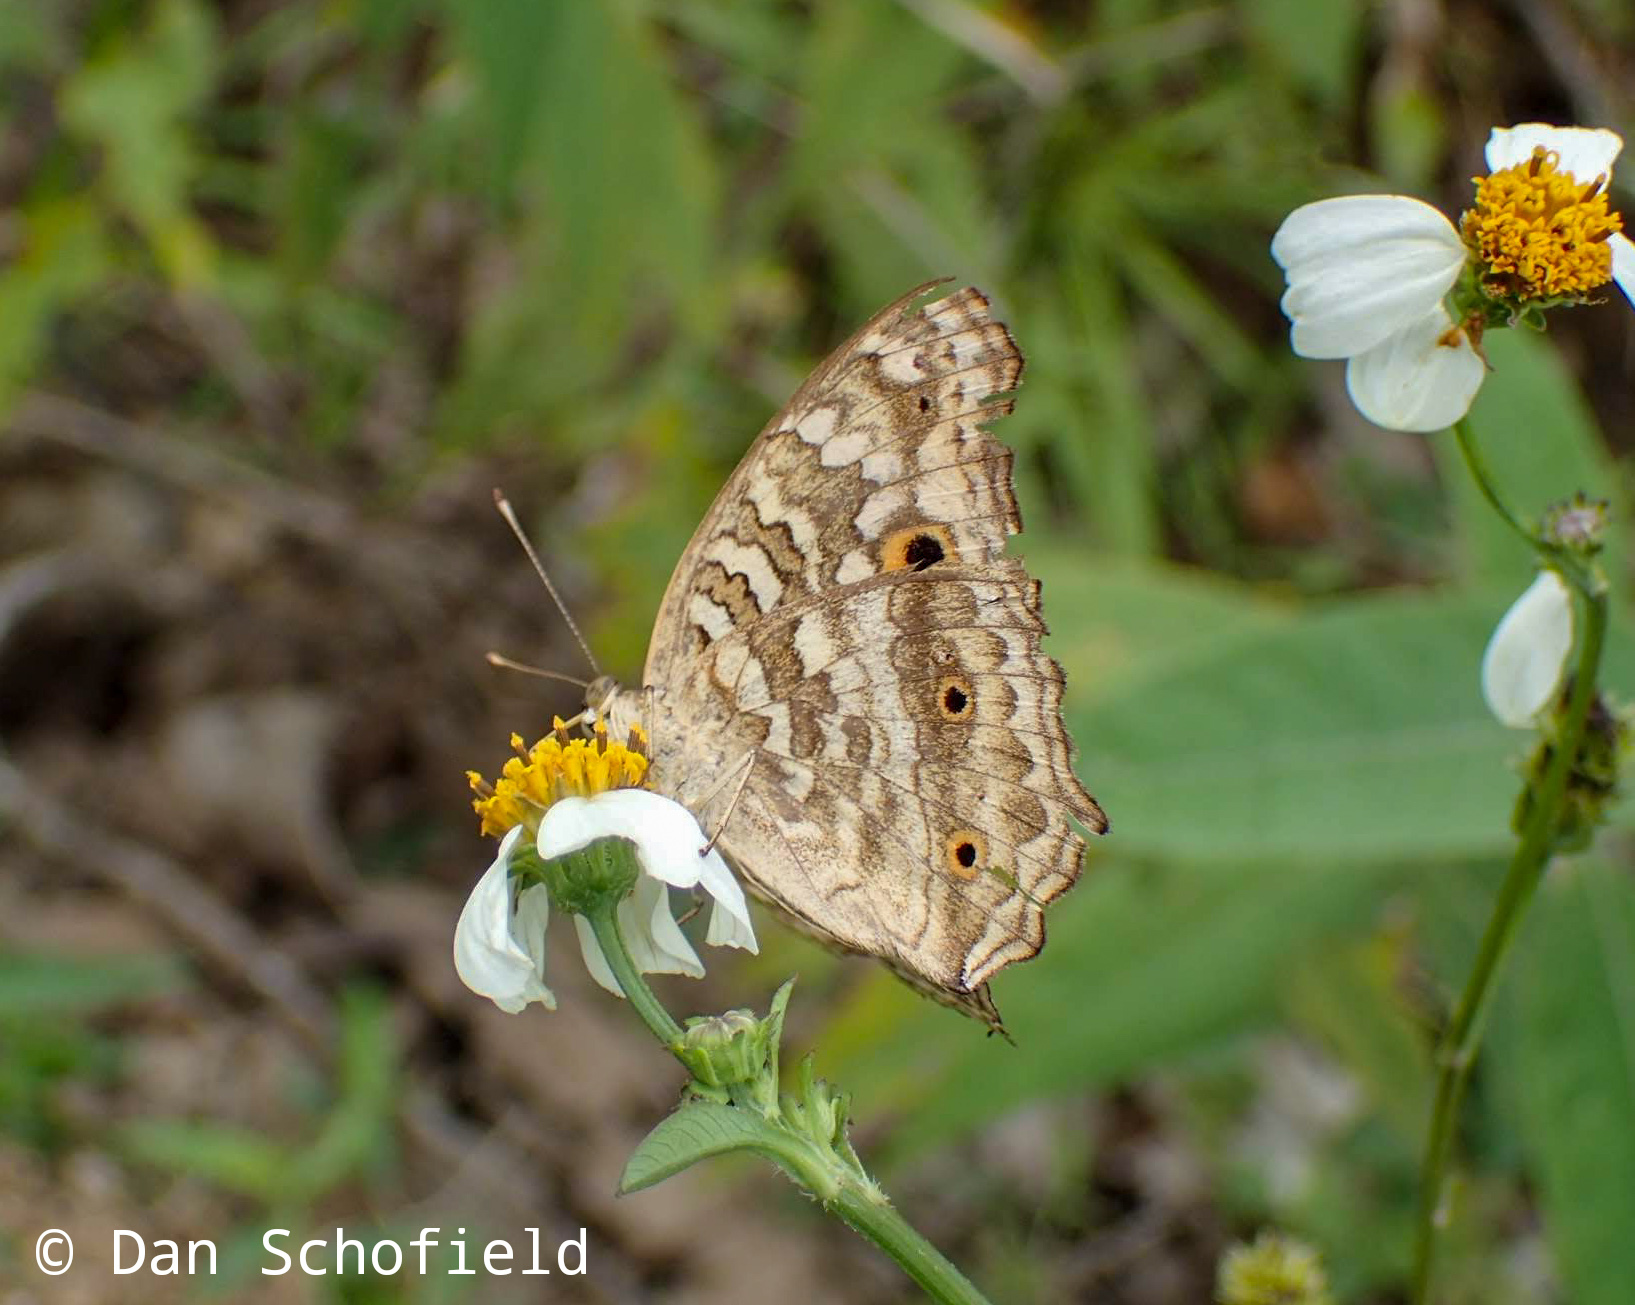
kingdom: Animalia
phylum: Arthropoda
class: Insecta
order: Lepidoptera
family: Nymphalidae
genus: Junonia
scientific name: Junonia lemonias
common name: Lemon pansy
